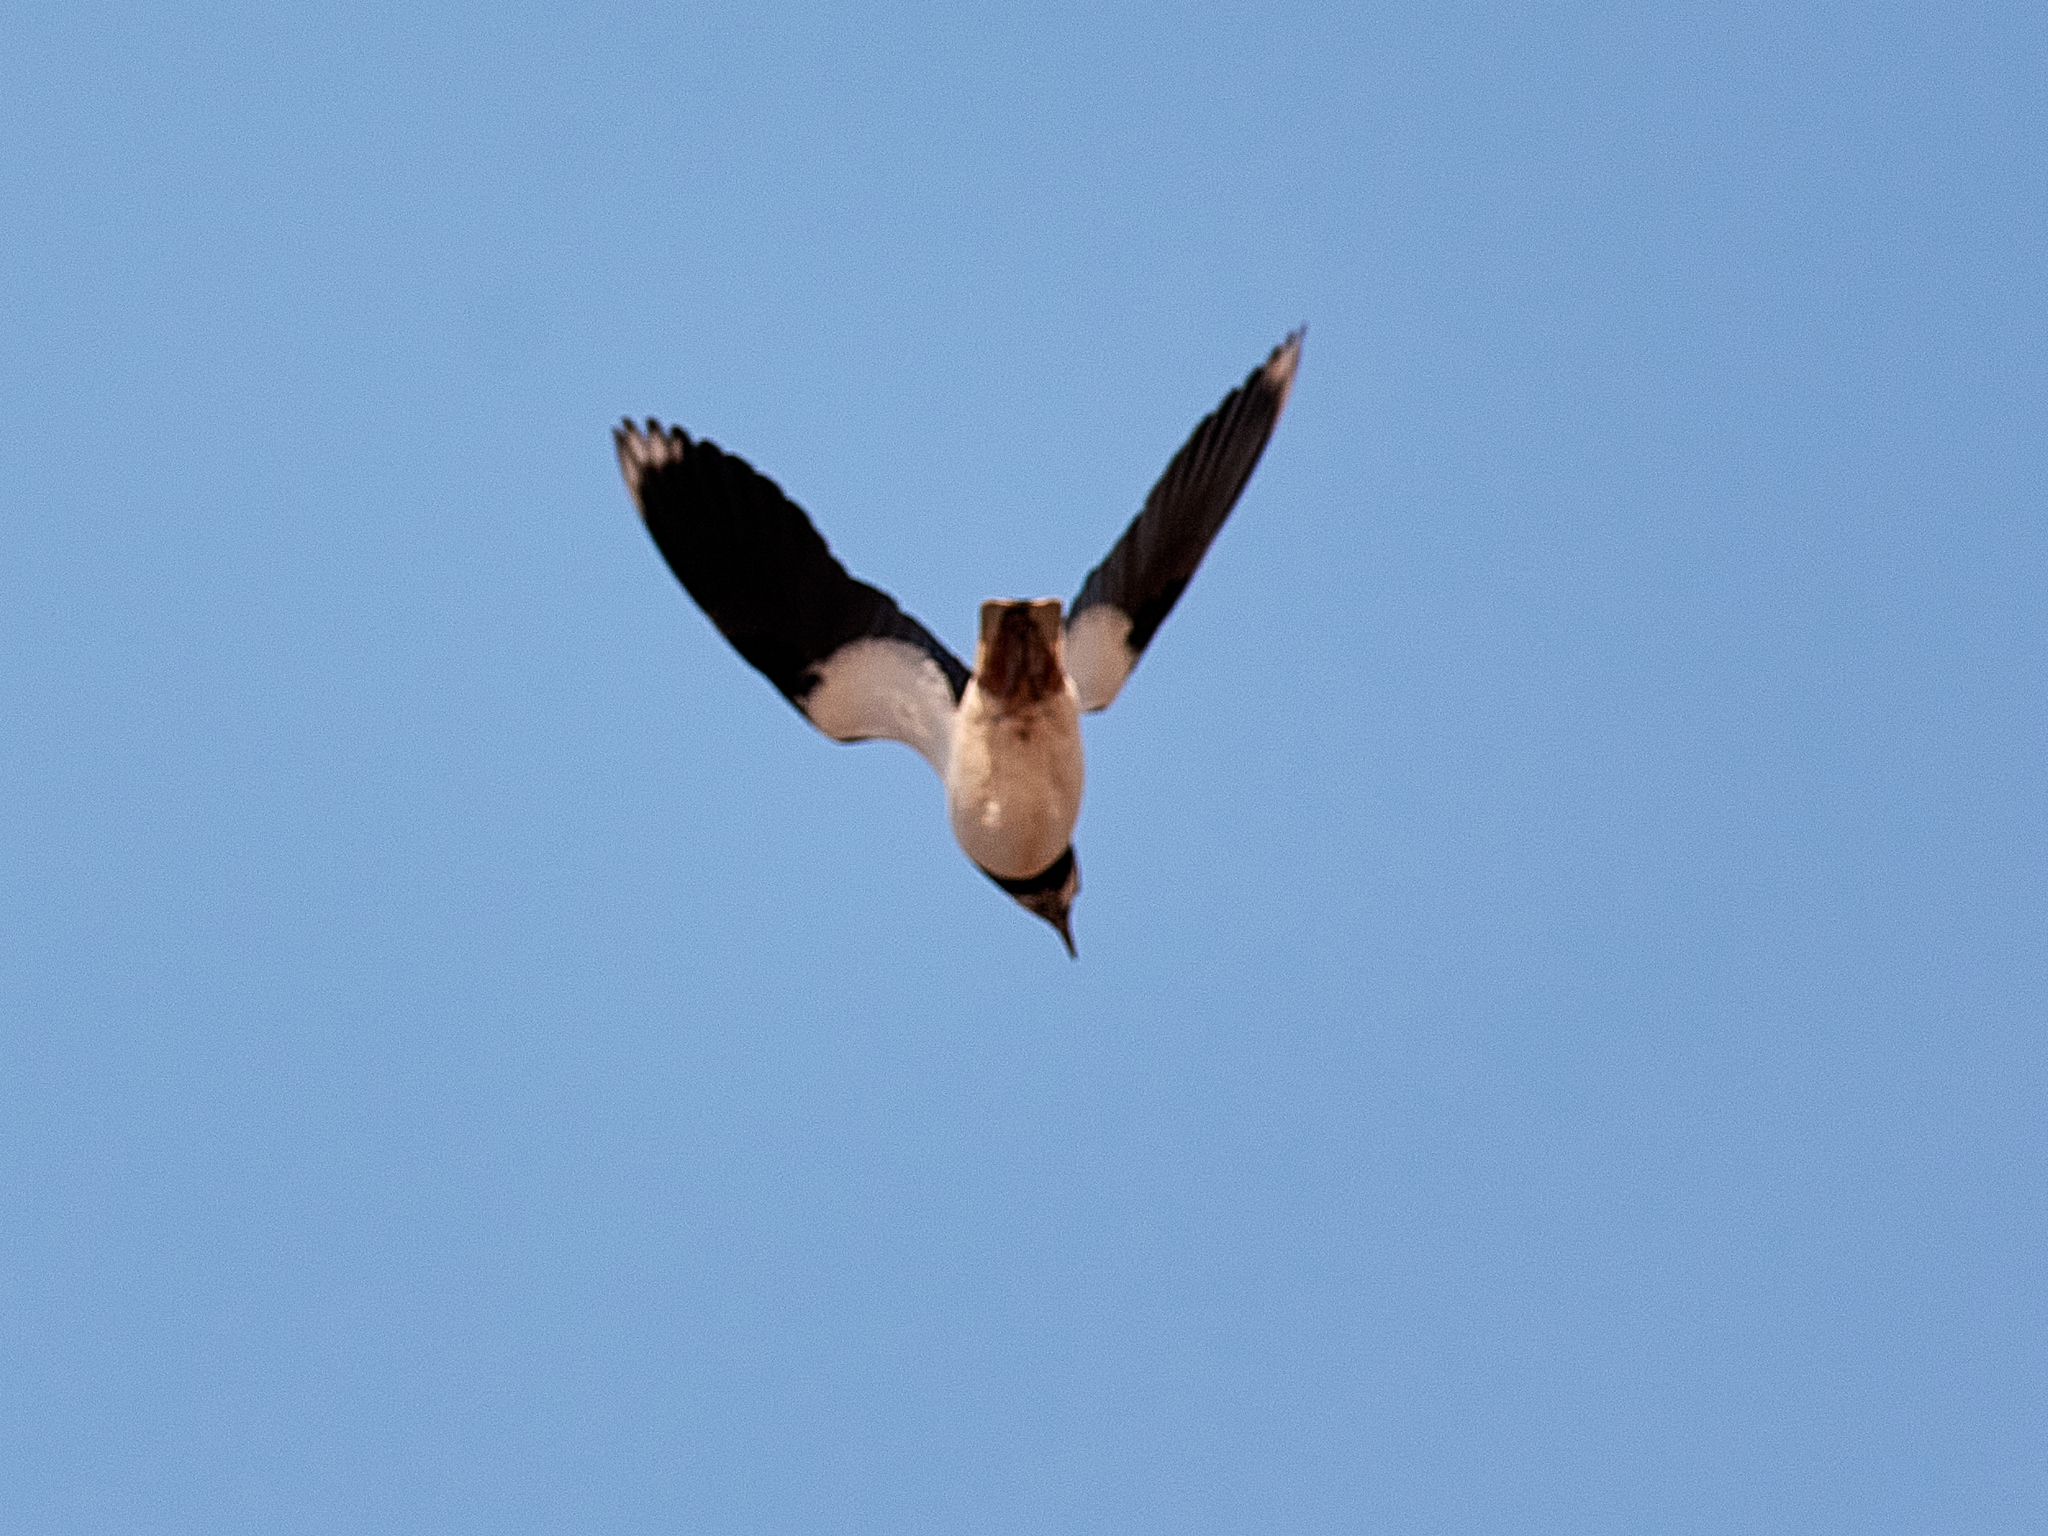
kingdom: Animalia
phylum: Chordata
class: Aves
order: Charadriiformes
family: Charadriidae
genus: Vanellus
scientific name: Vanellus vanellus
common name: Northern lapwing
